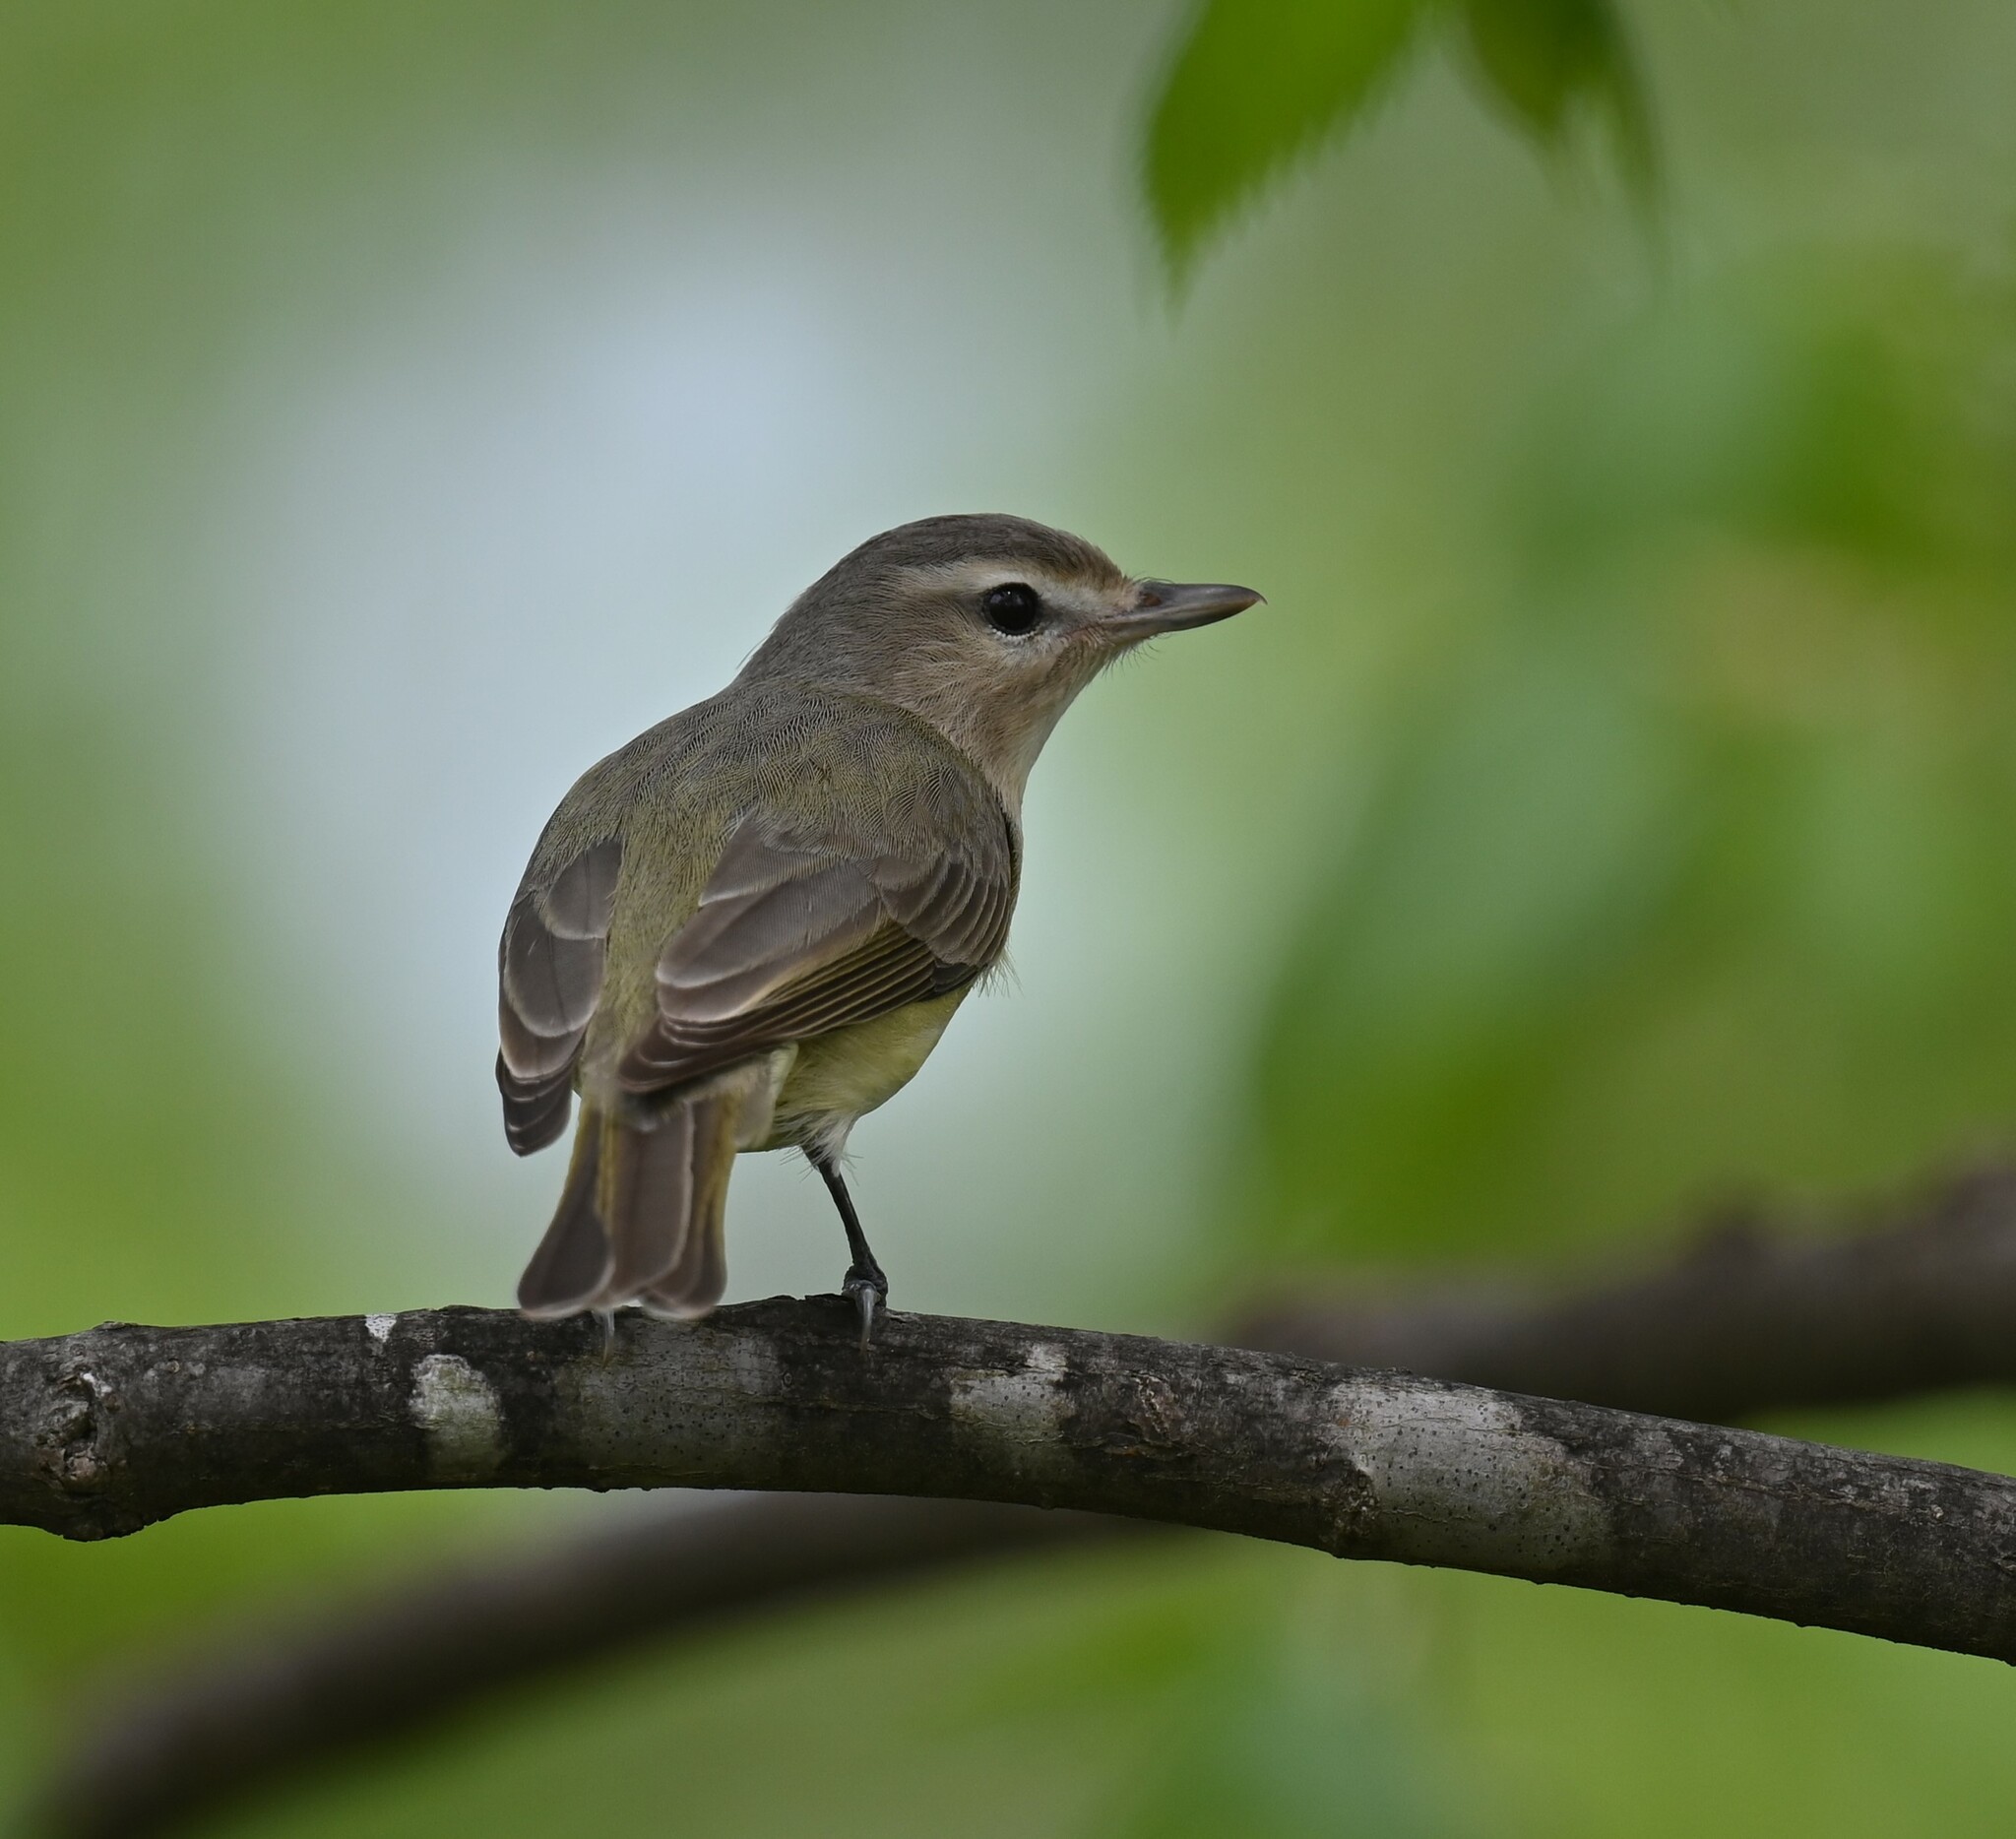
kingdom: Animalia
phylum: Chordata
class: Aves
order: Passeriformes
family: Vireonidae
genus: Vireo
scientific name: Vireo gilvus
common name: Warbling vireo
